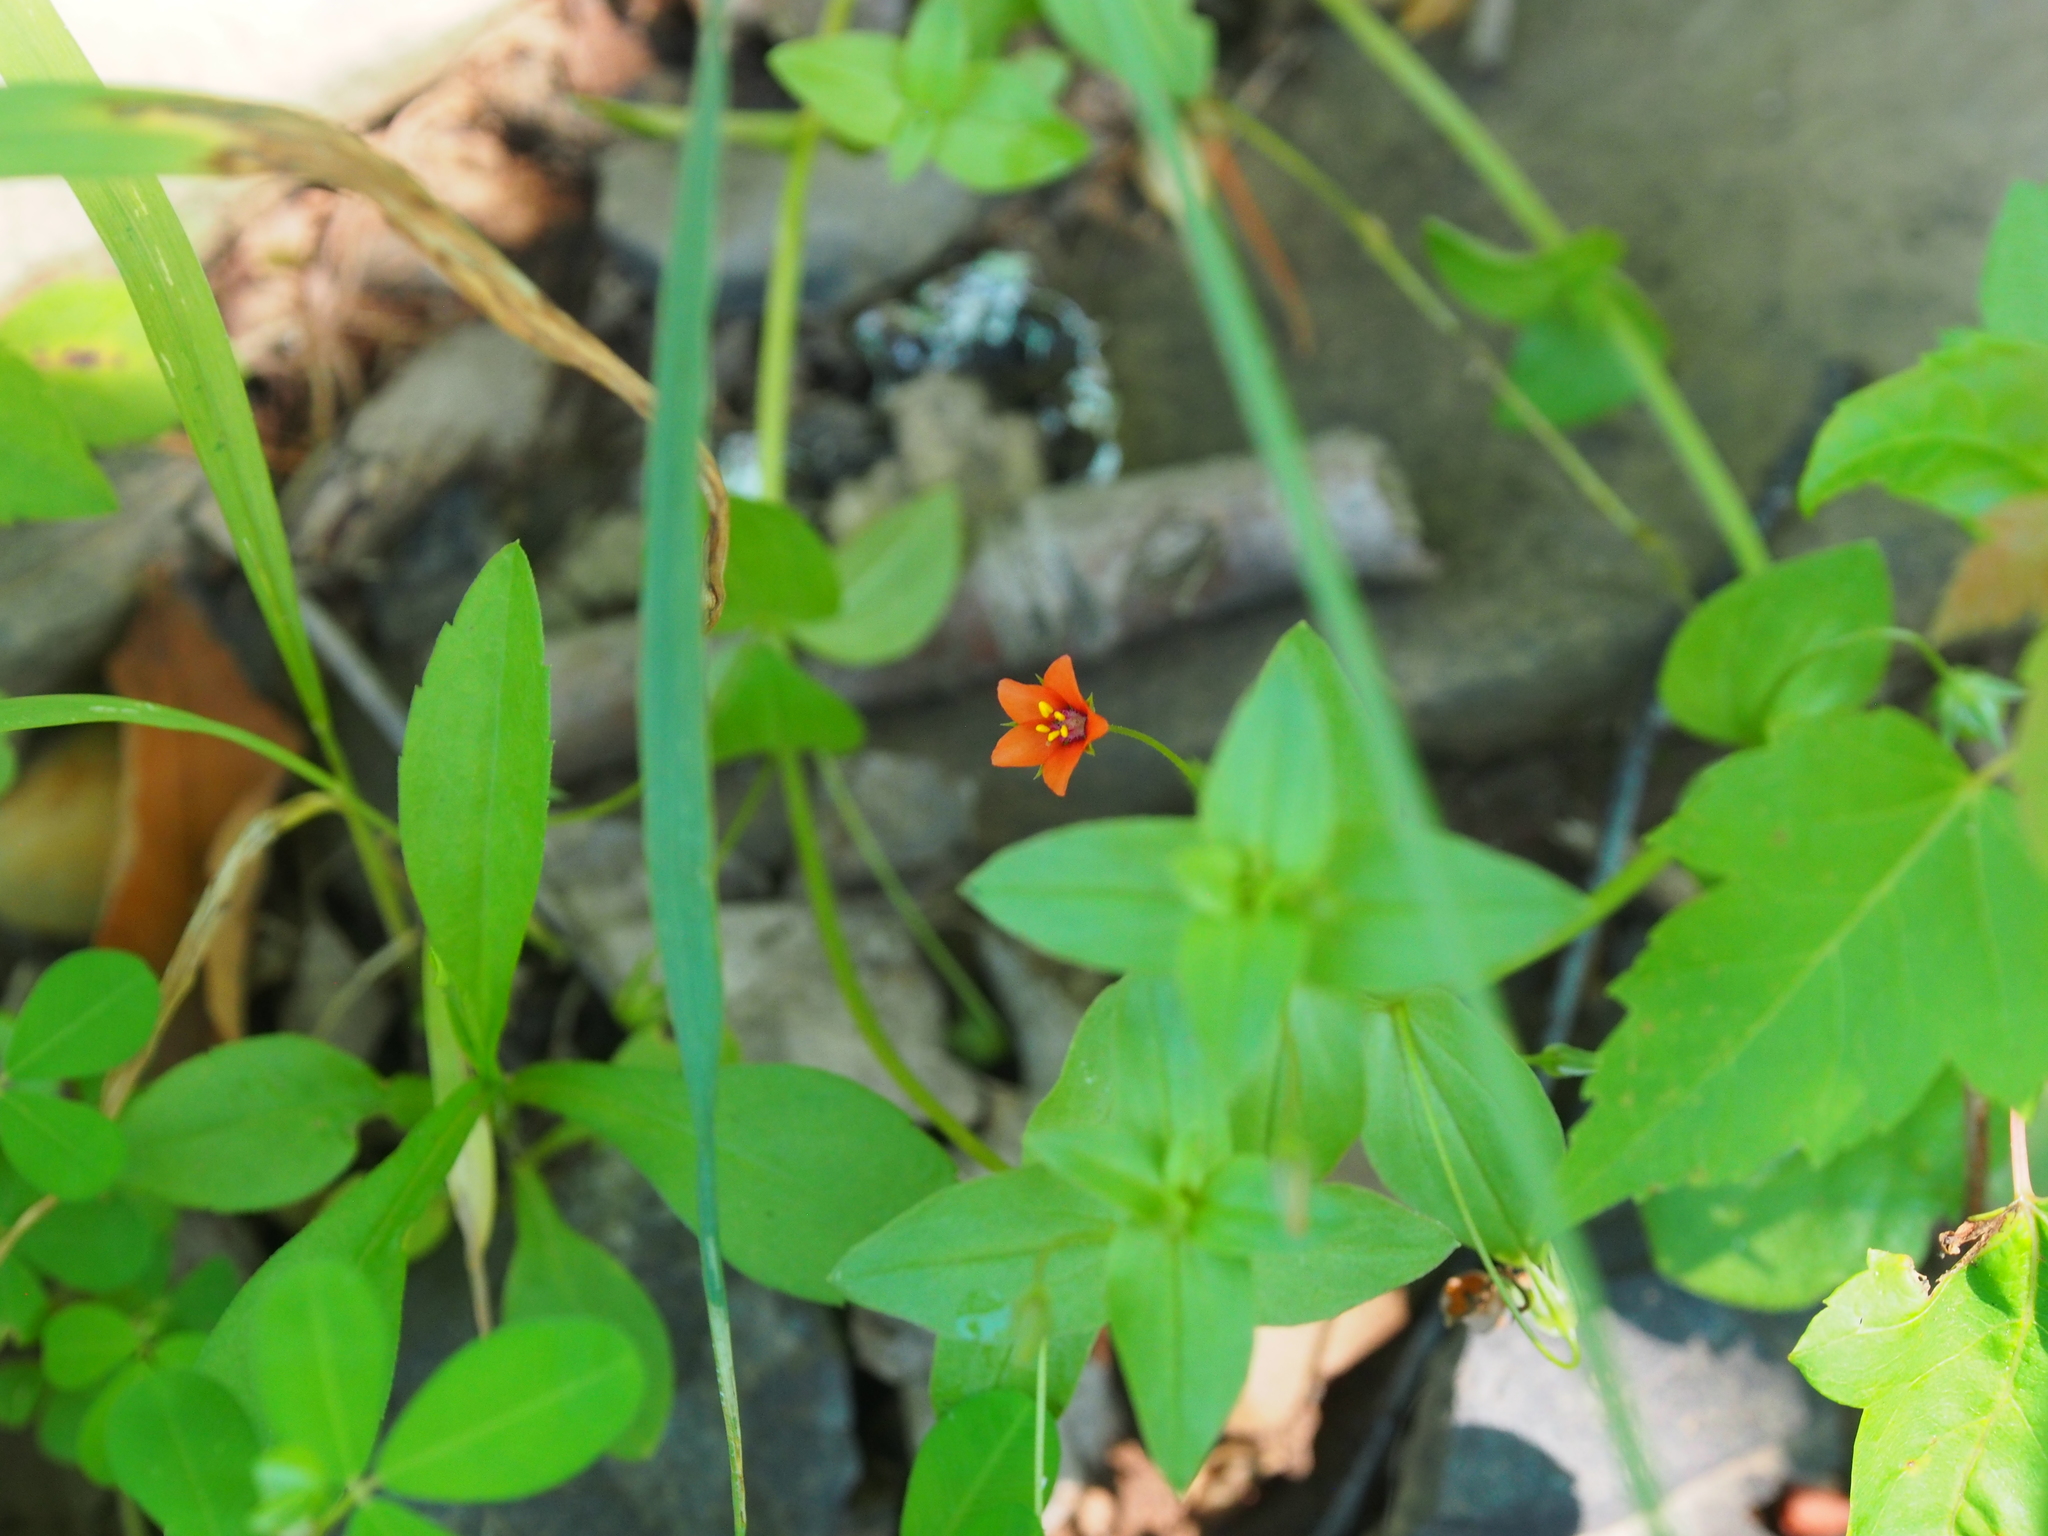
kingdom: Plantae
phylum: Tracheophyta
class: Magnoliopsida
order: Ericales
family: Primulaceae
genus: Lysimachia
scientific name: Lysimachia arvensis
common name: Scarlet pimpernel
